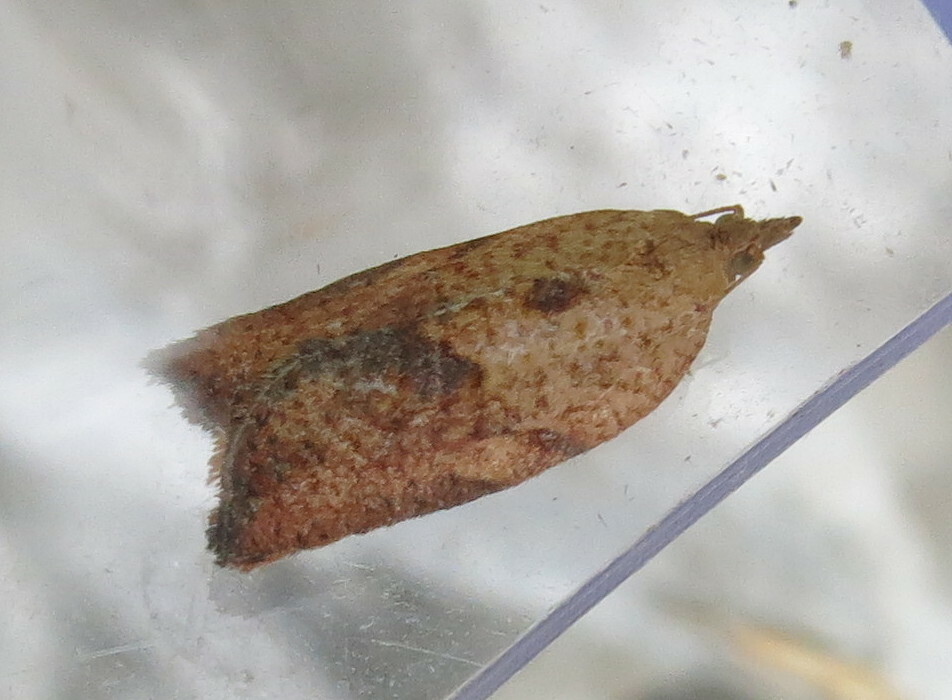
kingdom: Animalia
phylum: Arthropoda
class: Insecta
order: Lepidoptera
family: Tortricidae
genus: Epiphyas
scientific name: Epiphyas postvittana
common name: Light brown apple moth
